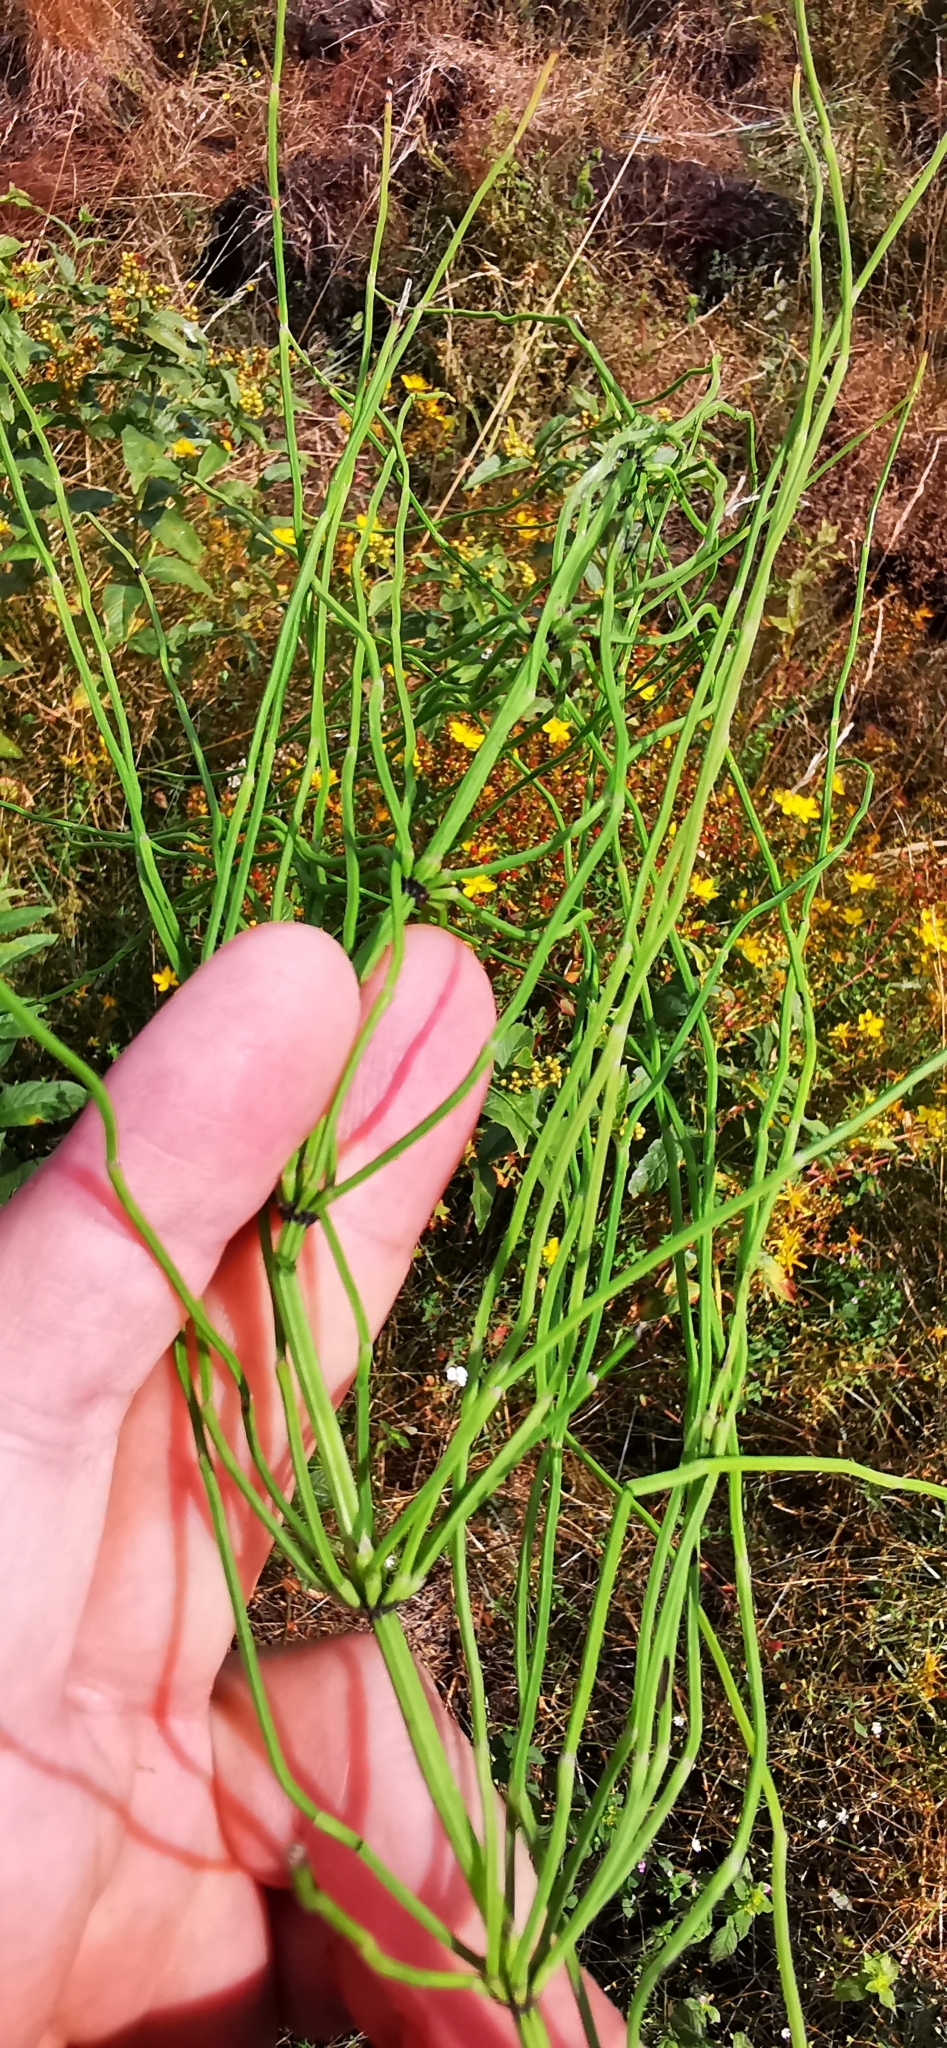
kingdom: Plantae
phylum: Tracheophyta
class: Polypodiopsida
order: Equisetales
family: Equisetaceae
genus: Equisetum
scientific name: Equisetum palustre
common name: Marsh horsetail
